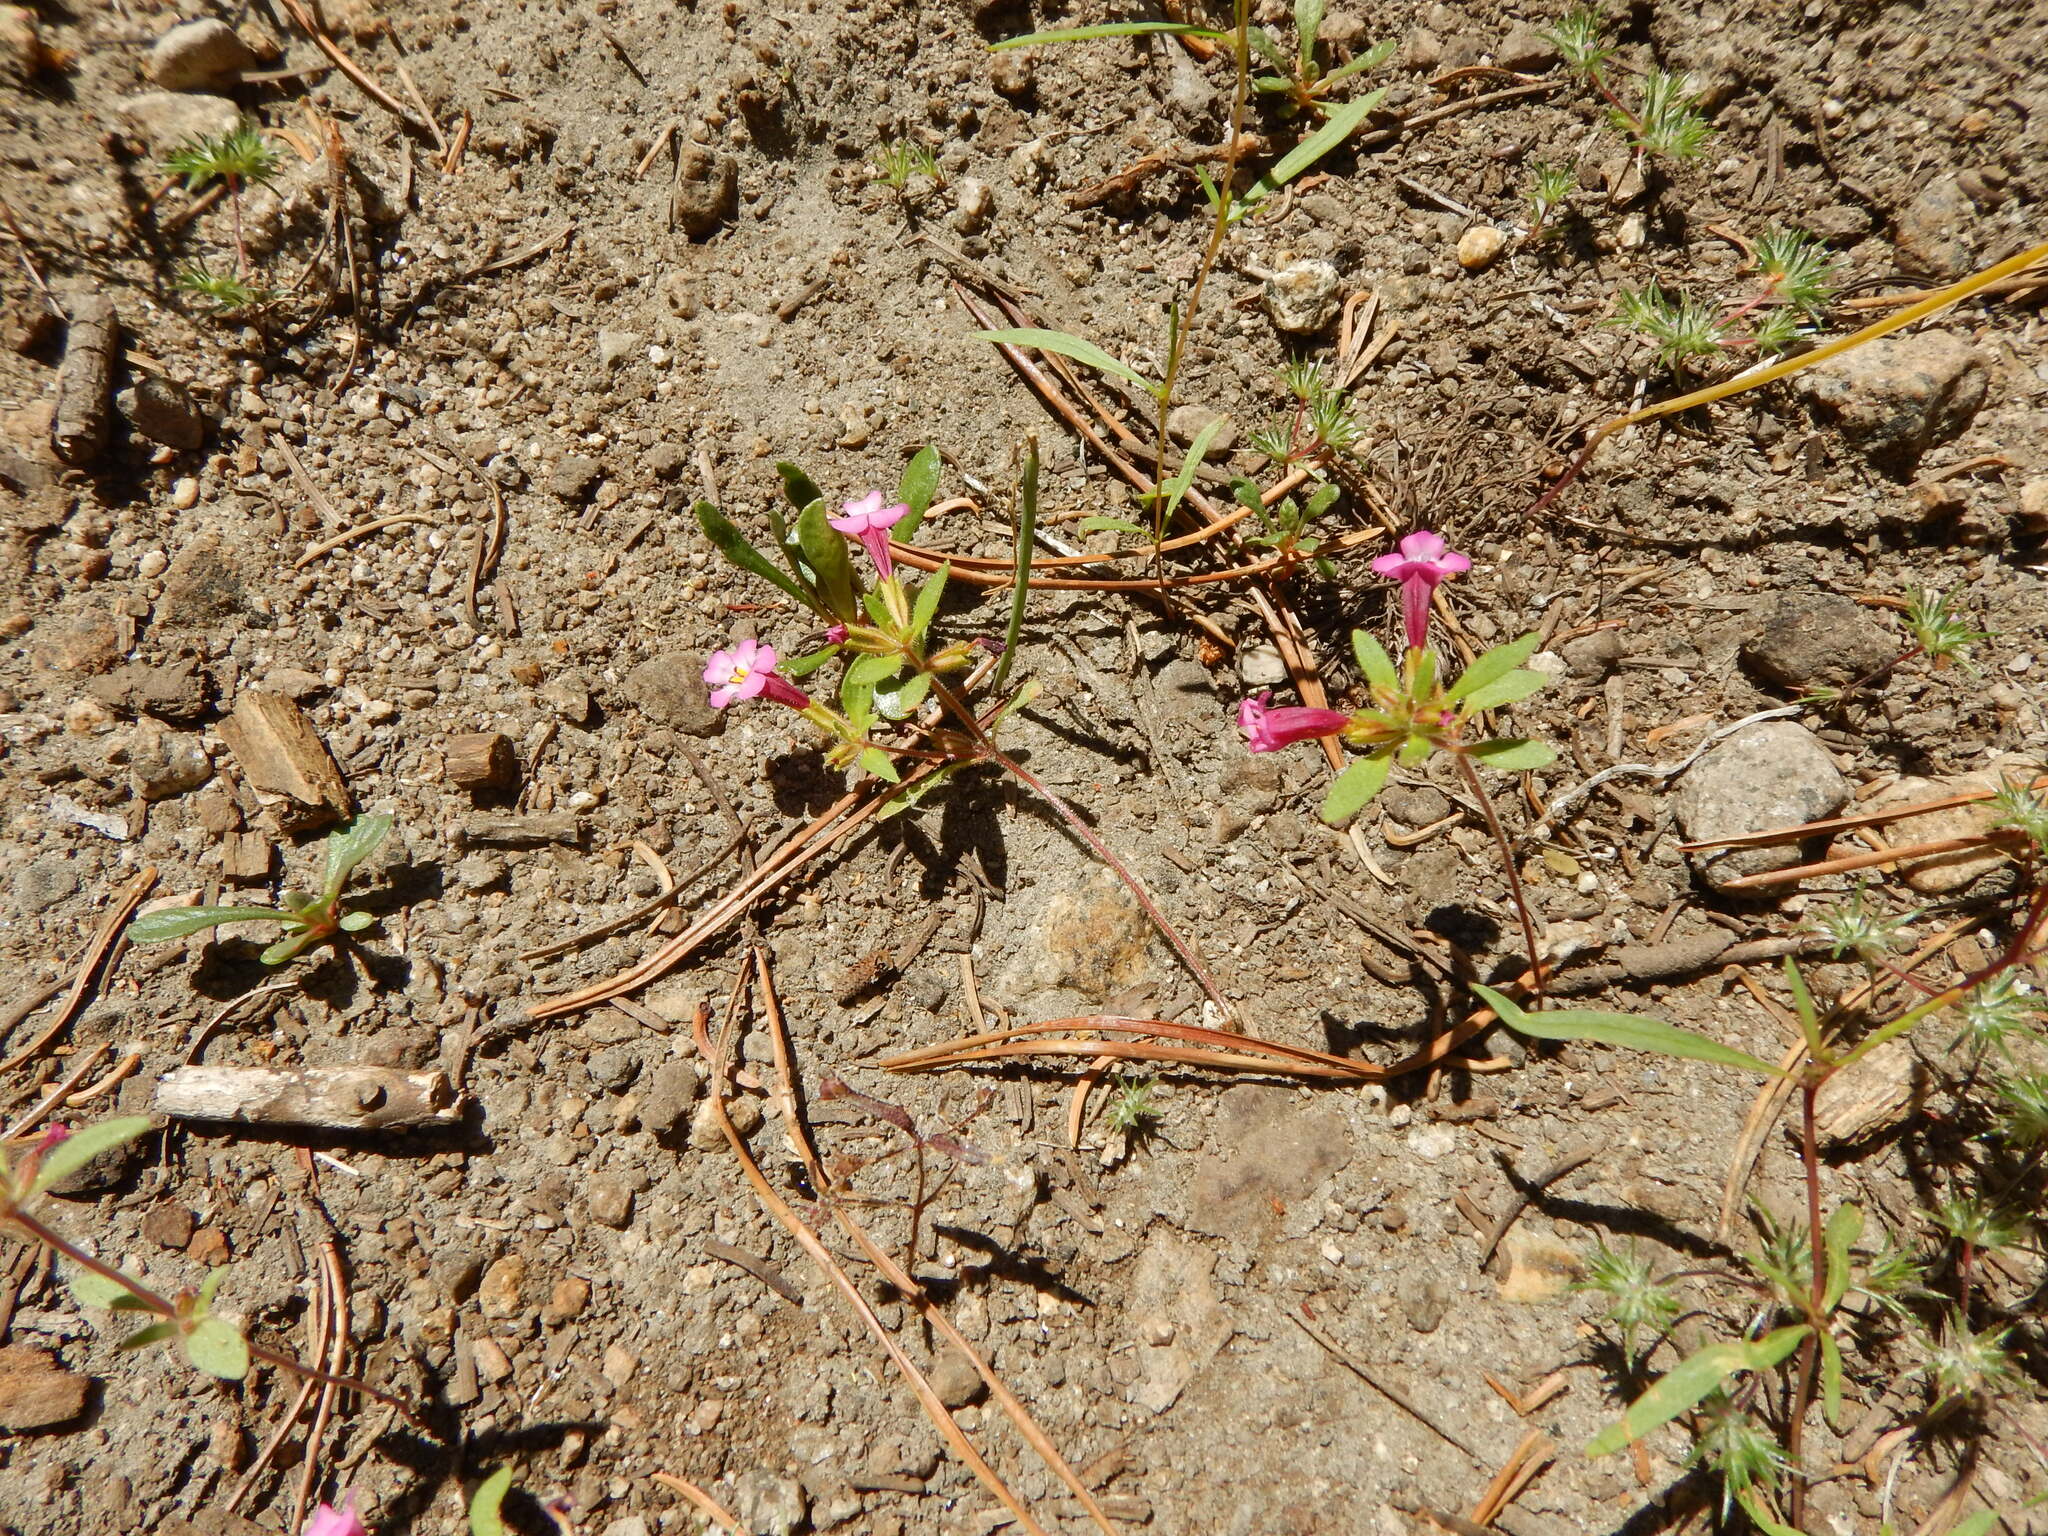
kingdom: Plantae
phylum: Tracheophyta
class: Magnoliopsida
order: Lamiales
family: Phrymaceae
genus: Diplacus
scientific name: Diplacus torreyi
